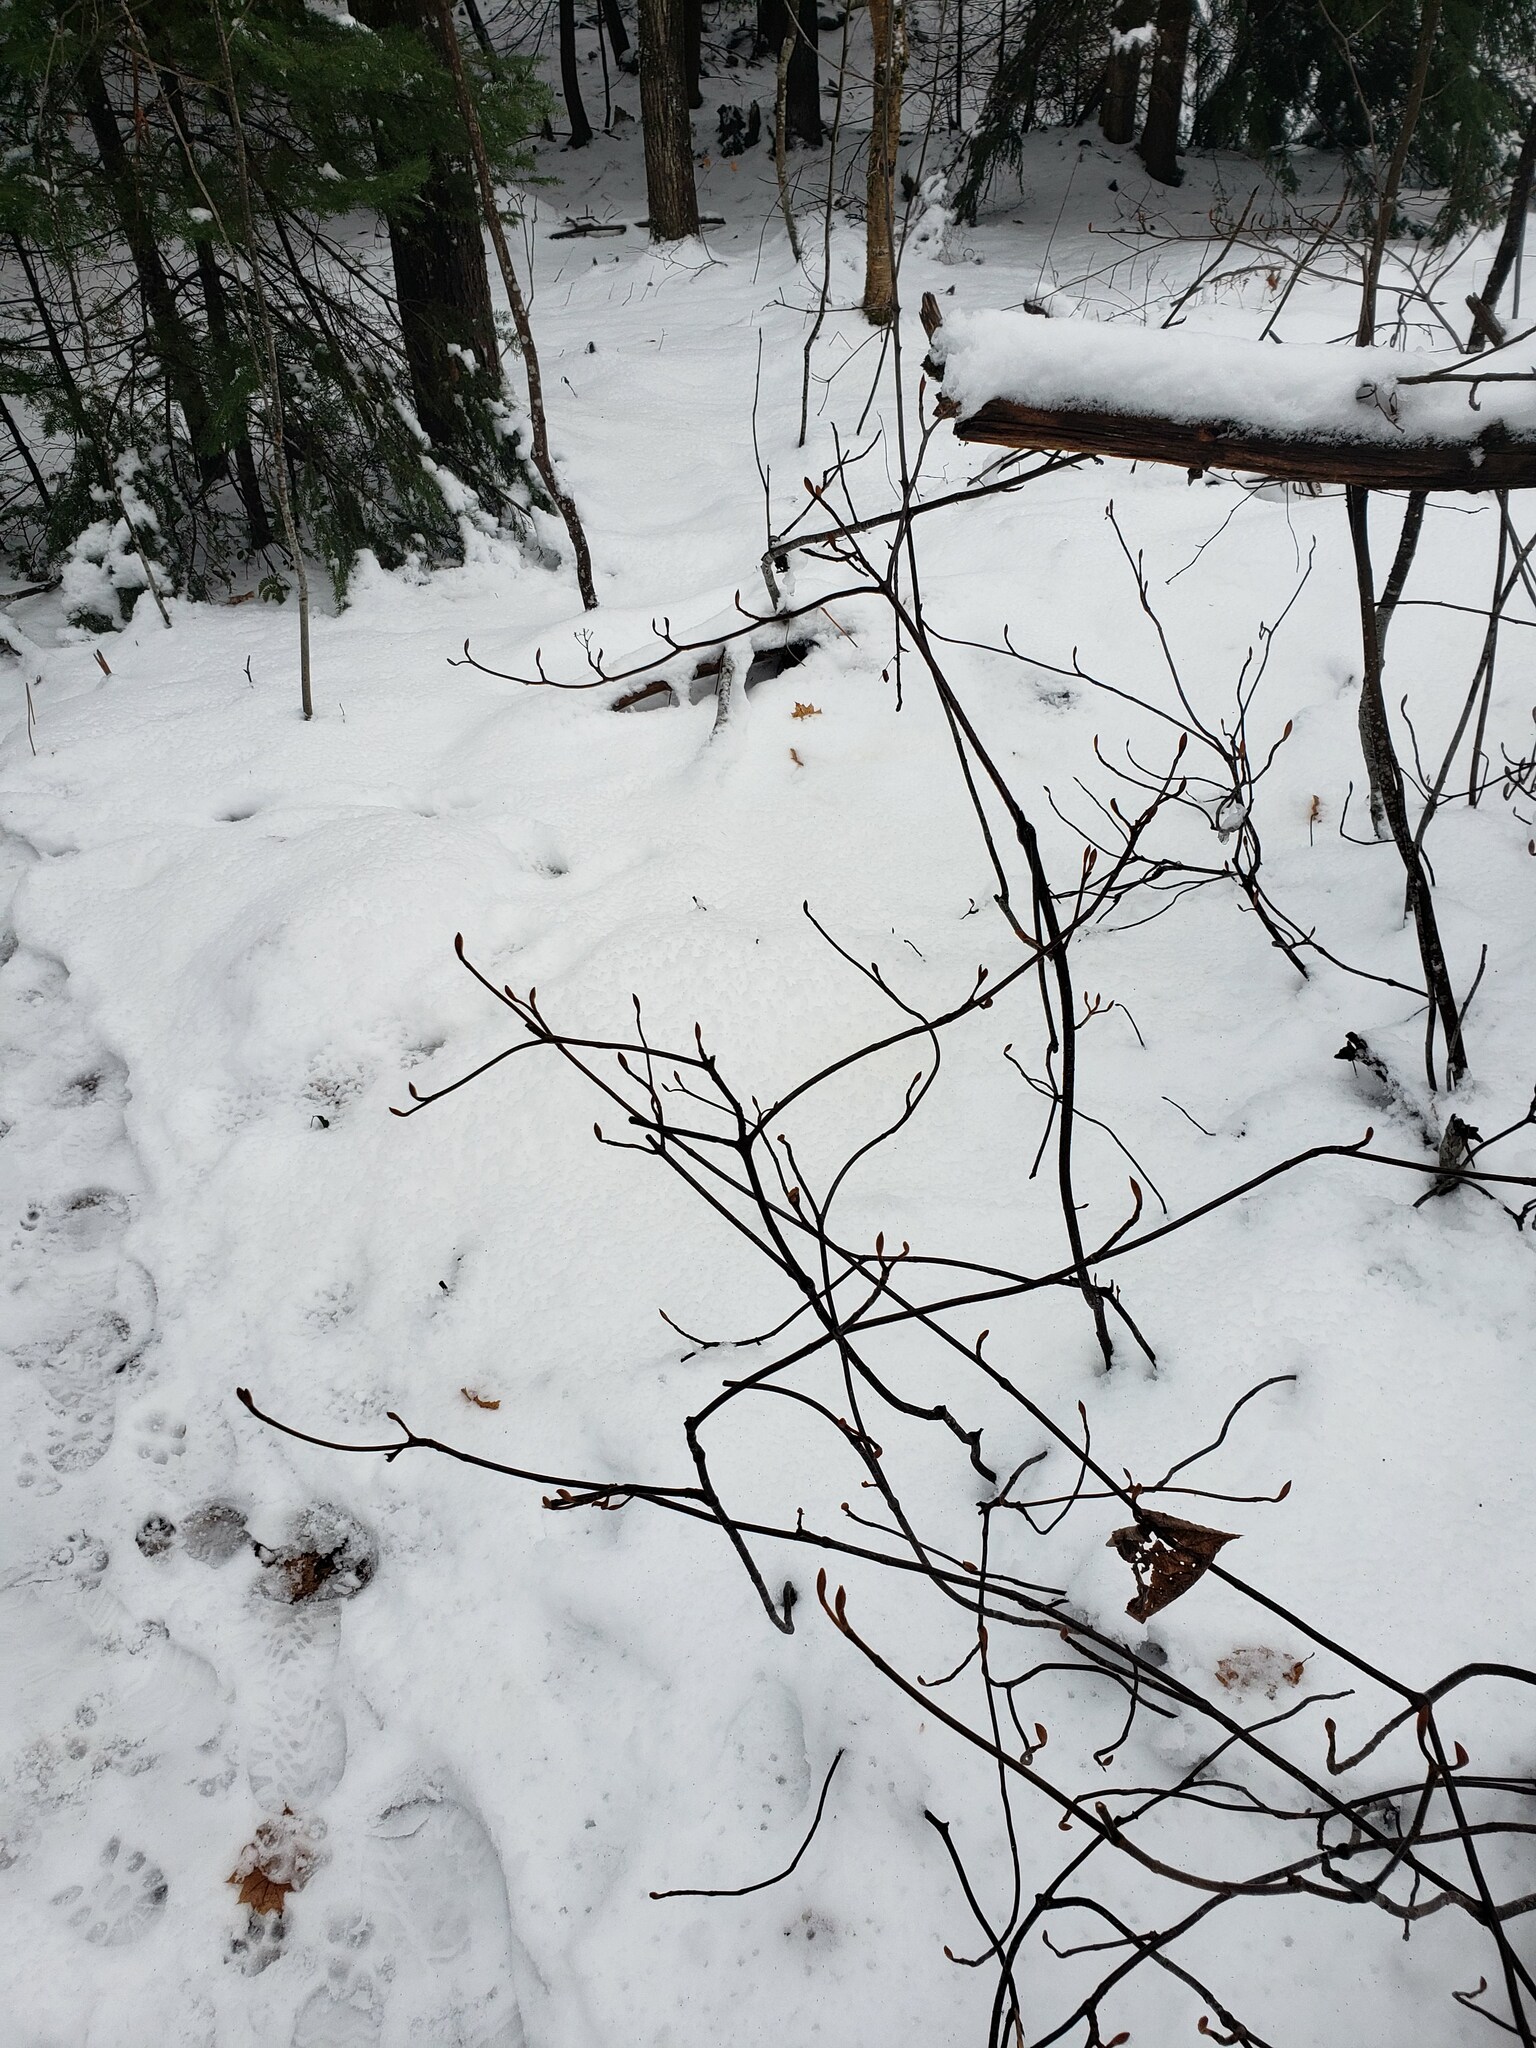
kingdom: Plantae
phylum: Tracheophyta
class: Magnoliopsida
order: Dipsacales
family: Viburnaceae
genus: Viburnum
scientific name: Viburnum lantanoides
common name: Hobblebush
